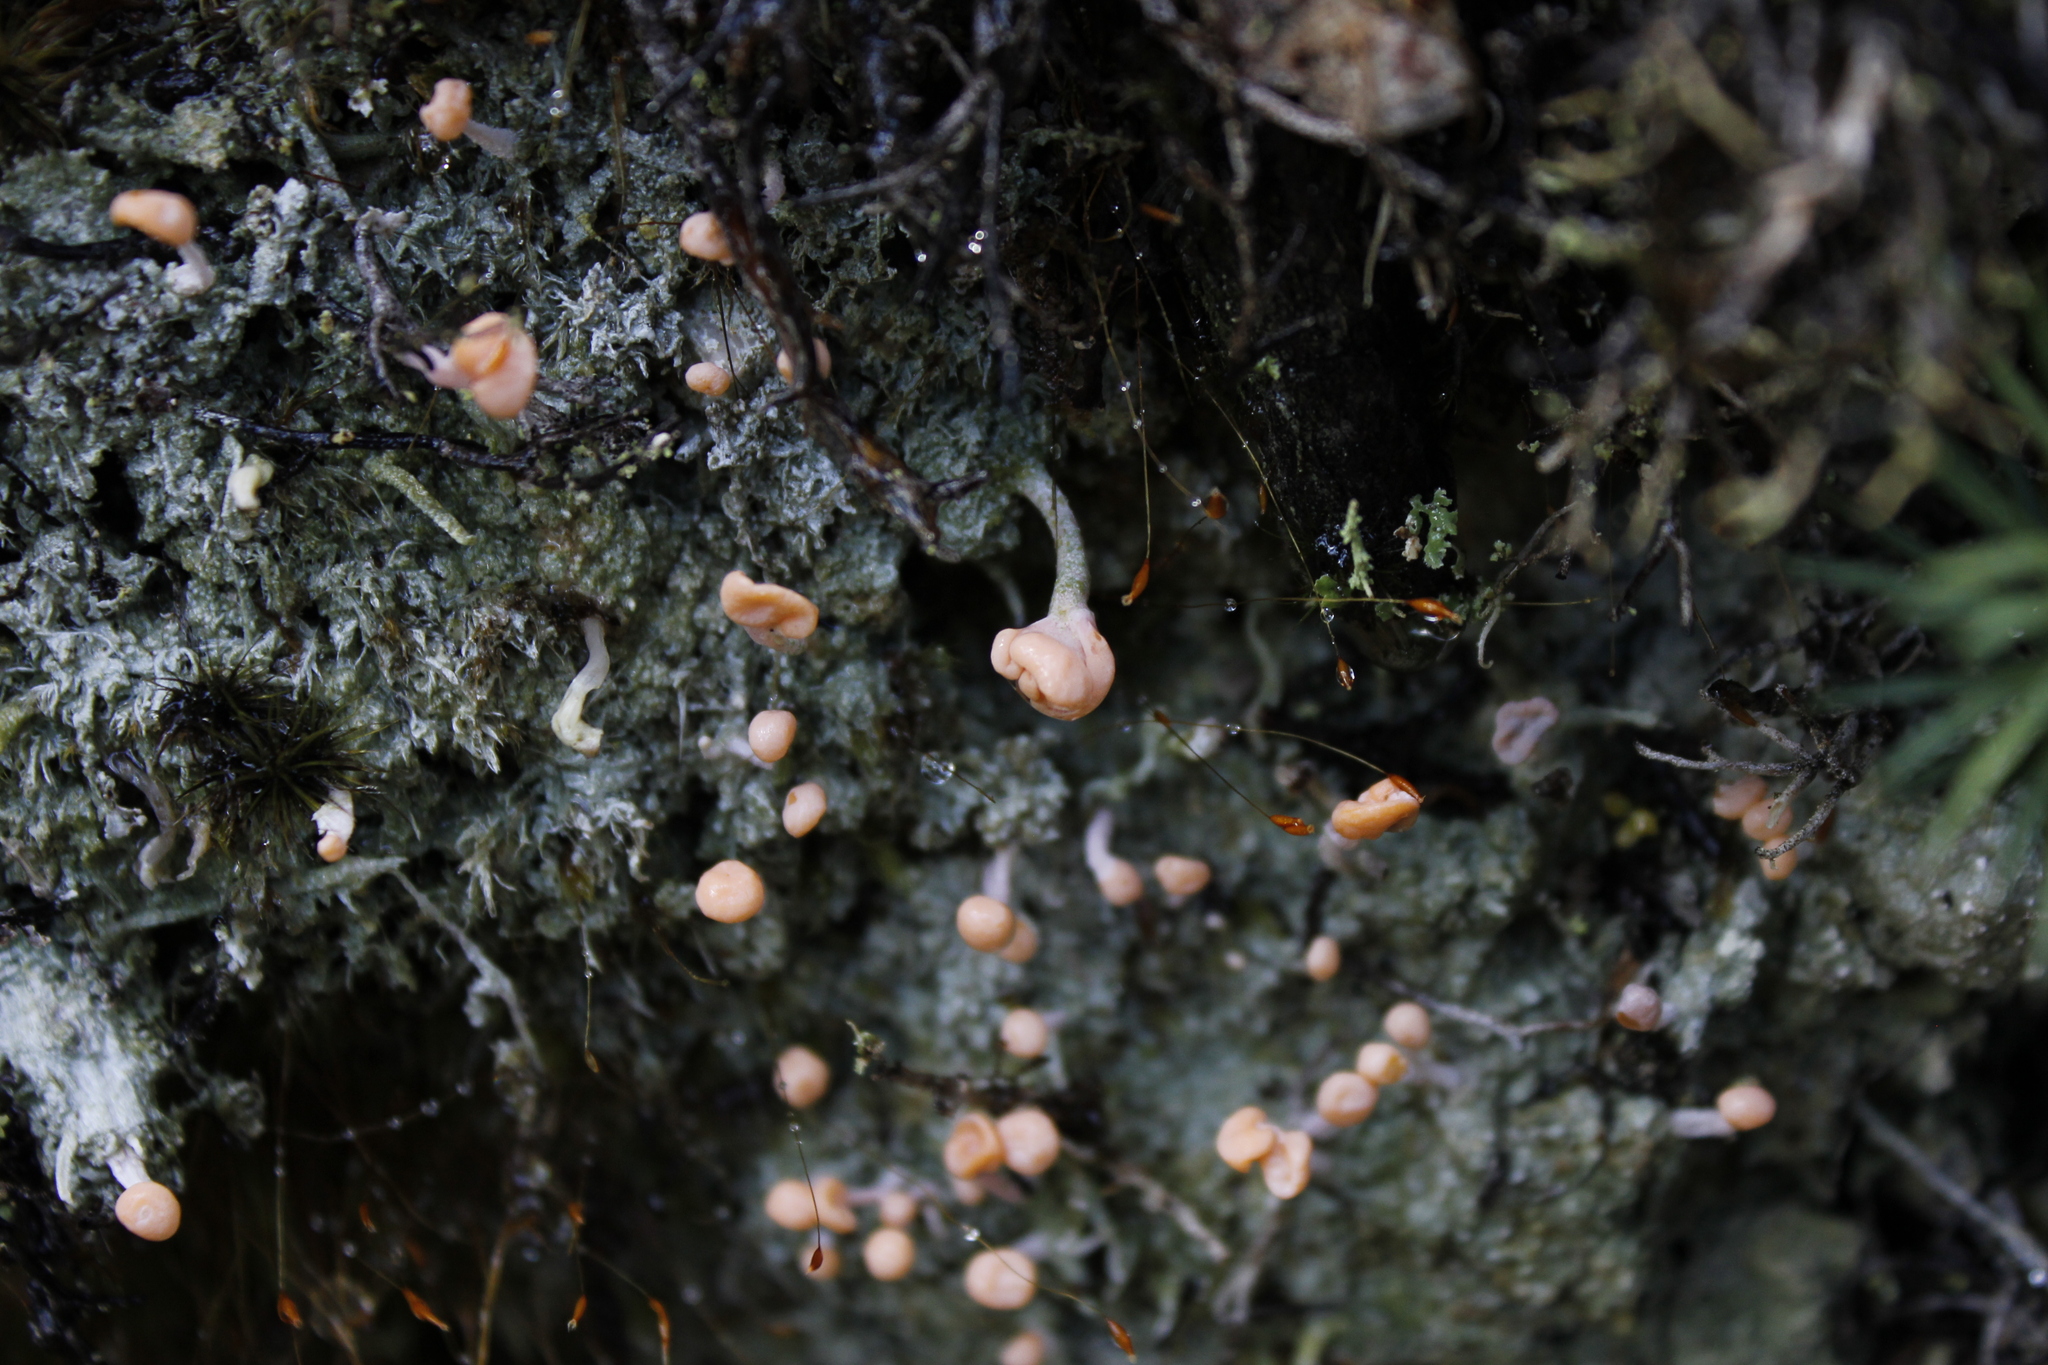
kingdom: Fungi
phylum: Ascomycota
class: Lecanoromycetes
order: Pertusariales
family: Icmadophilaceae
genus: Dibaeis
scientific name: Dibaeis arcuata
